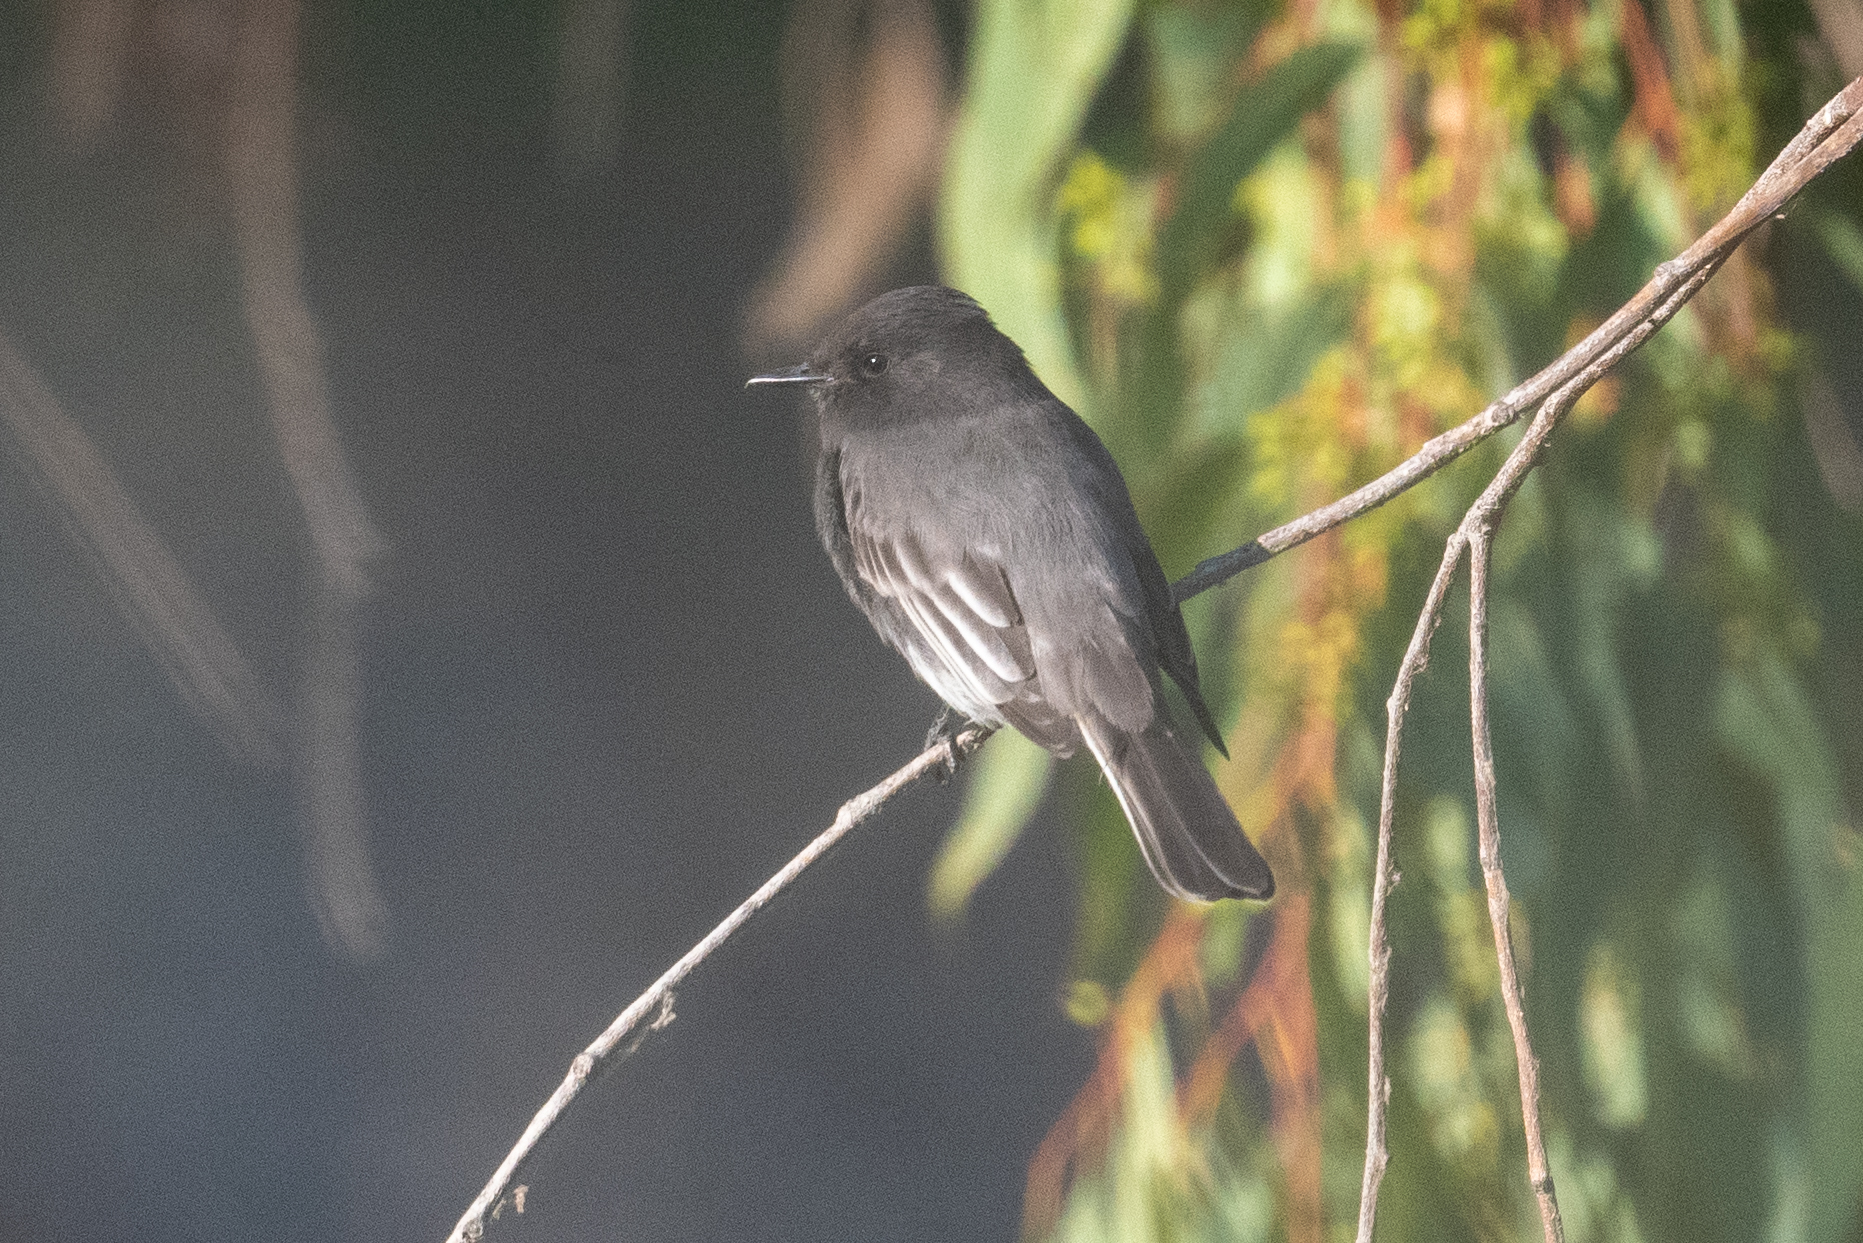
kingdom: Animalia
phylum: Chordata
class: Aves
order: Passeriformes
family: Tyrannidae
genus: Sayornis
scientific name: Sayornis nigricans
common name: Black phoebe
